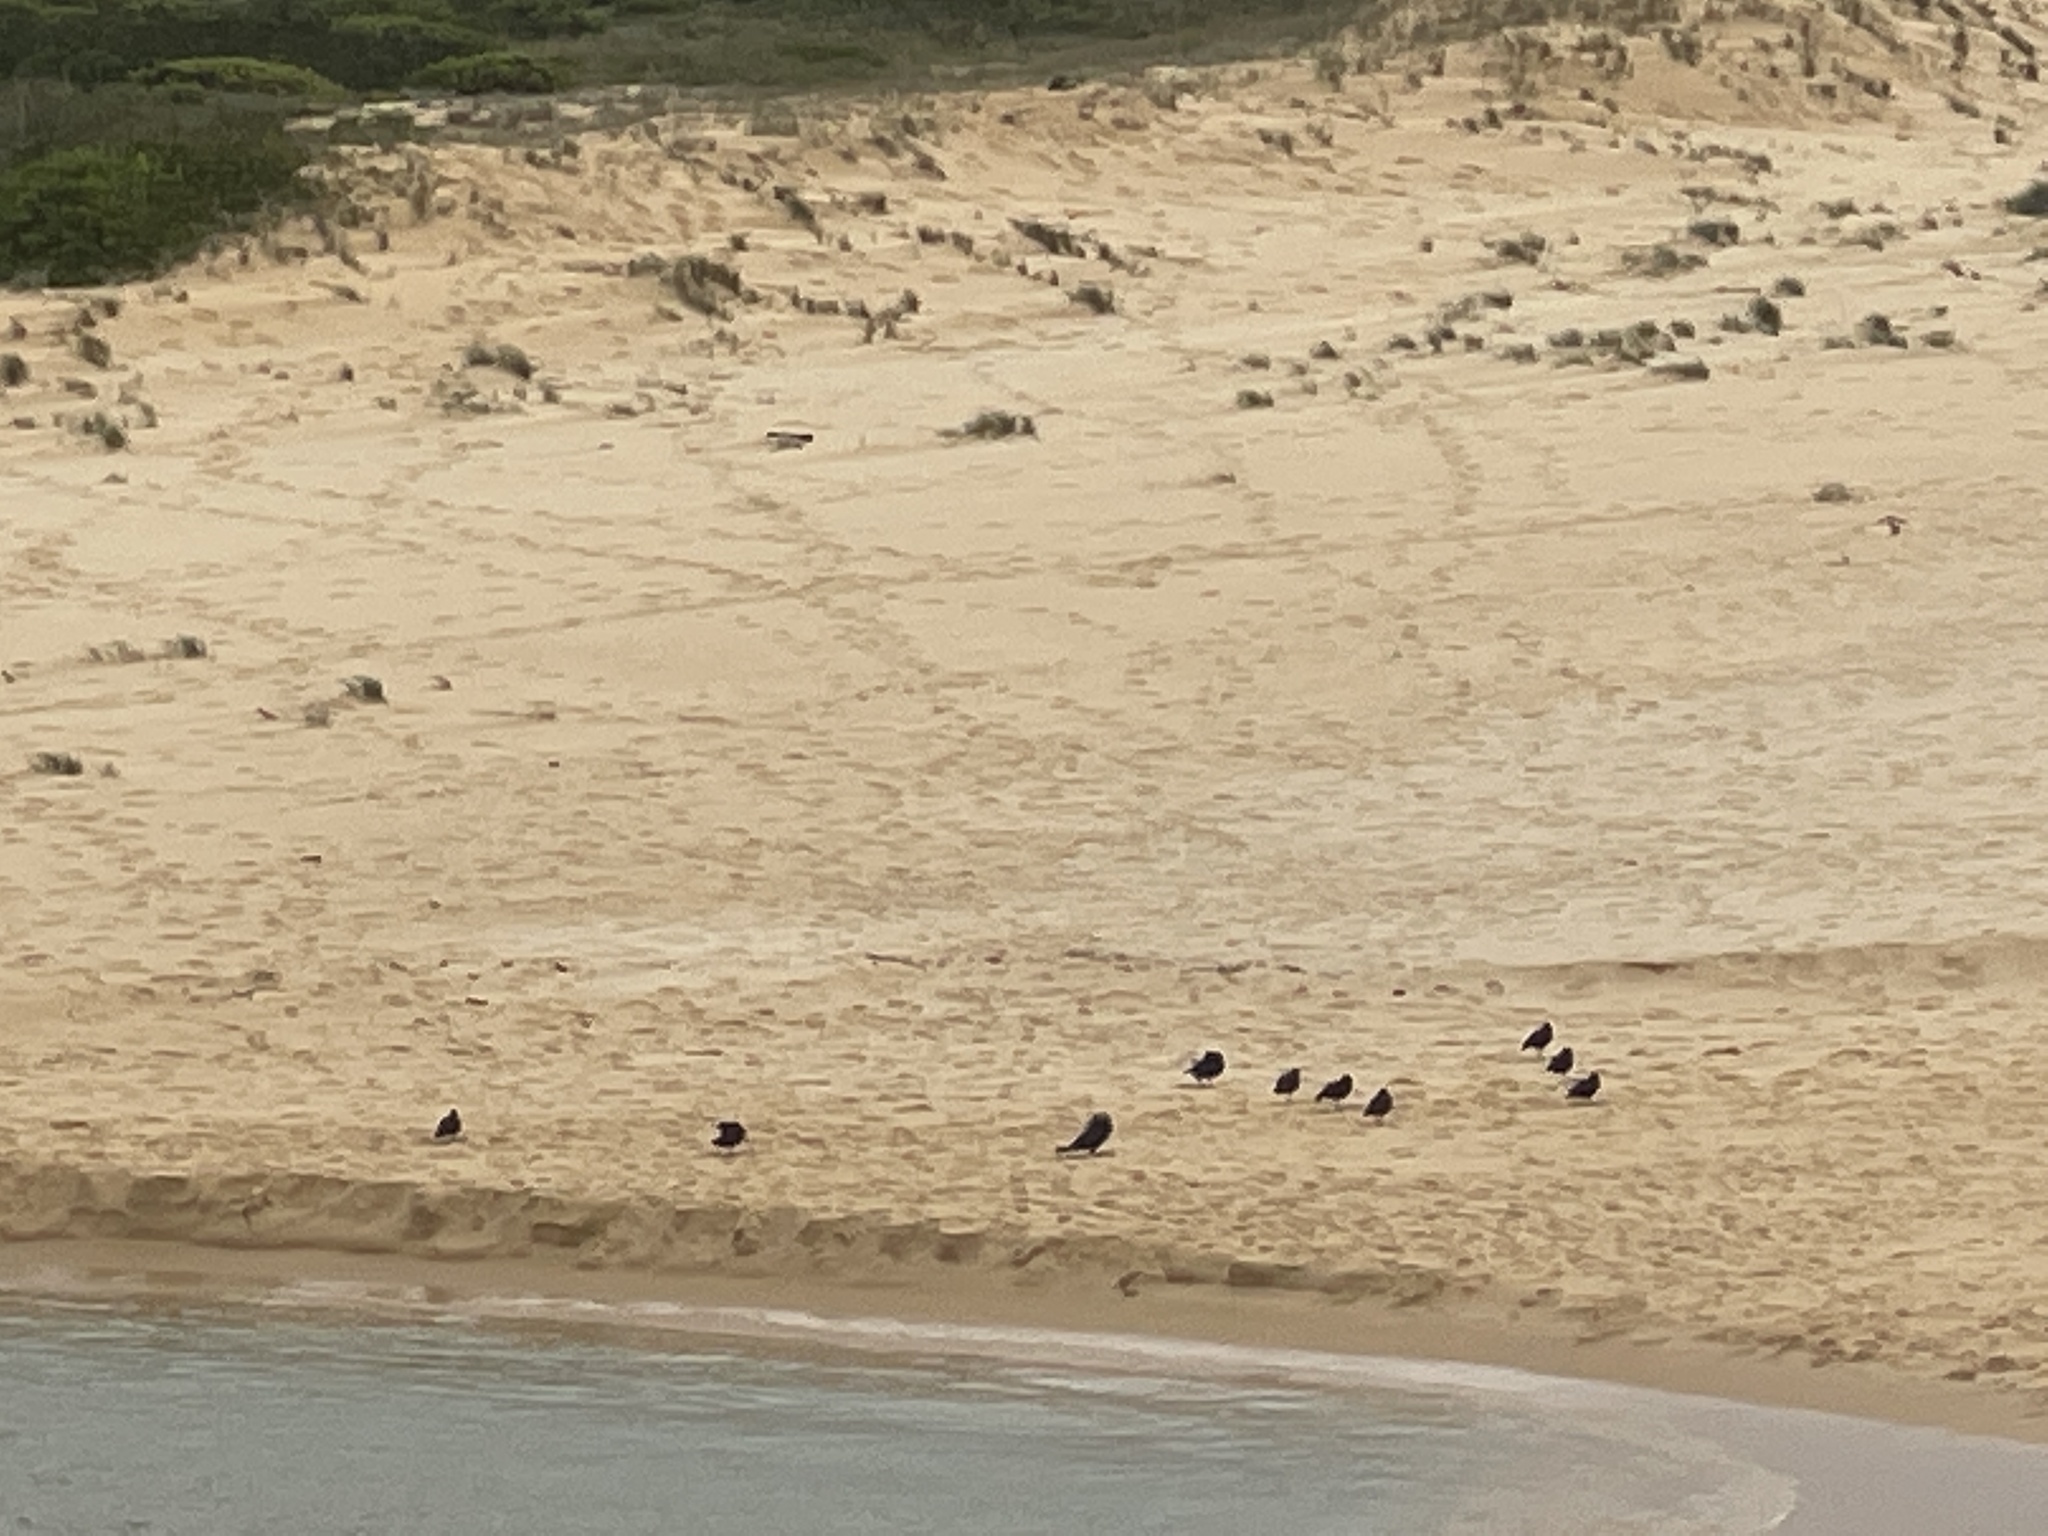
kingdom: Animalia
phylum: Chordata
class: Aves
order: Charadriiformes
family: Haematopodidae
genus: Haematopus
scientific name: Haematopus fuliginosus
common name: Sooty oystercatcher
